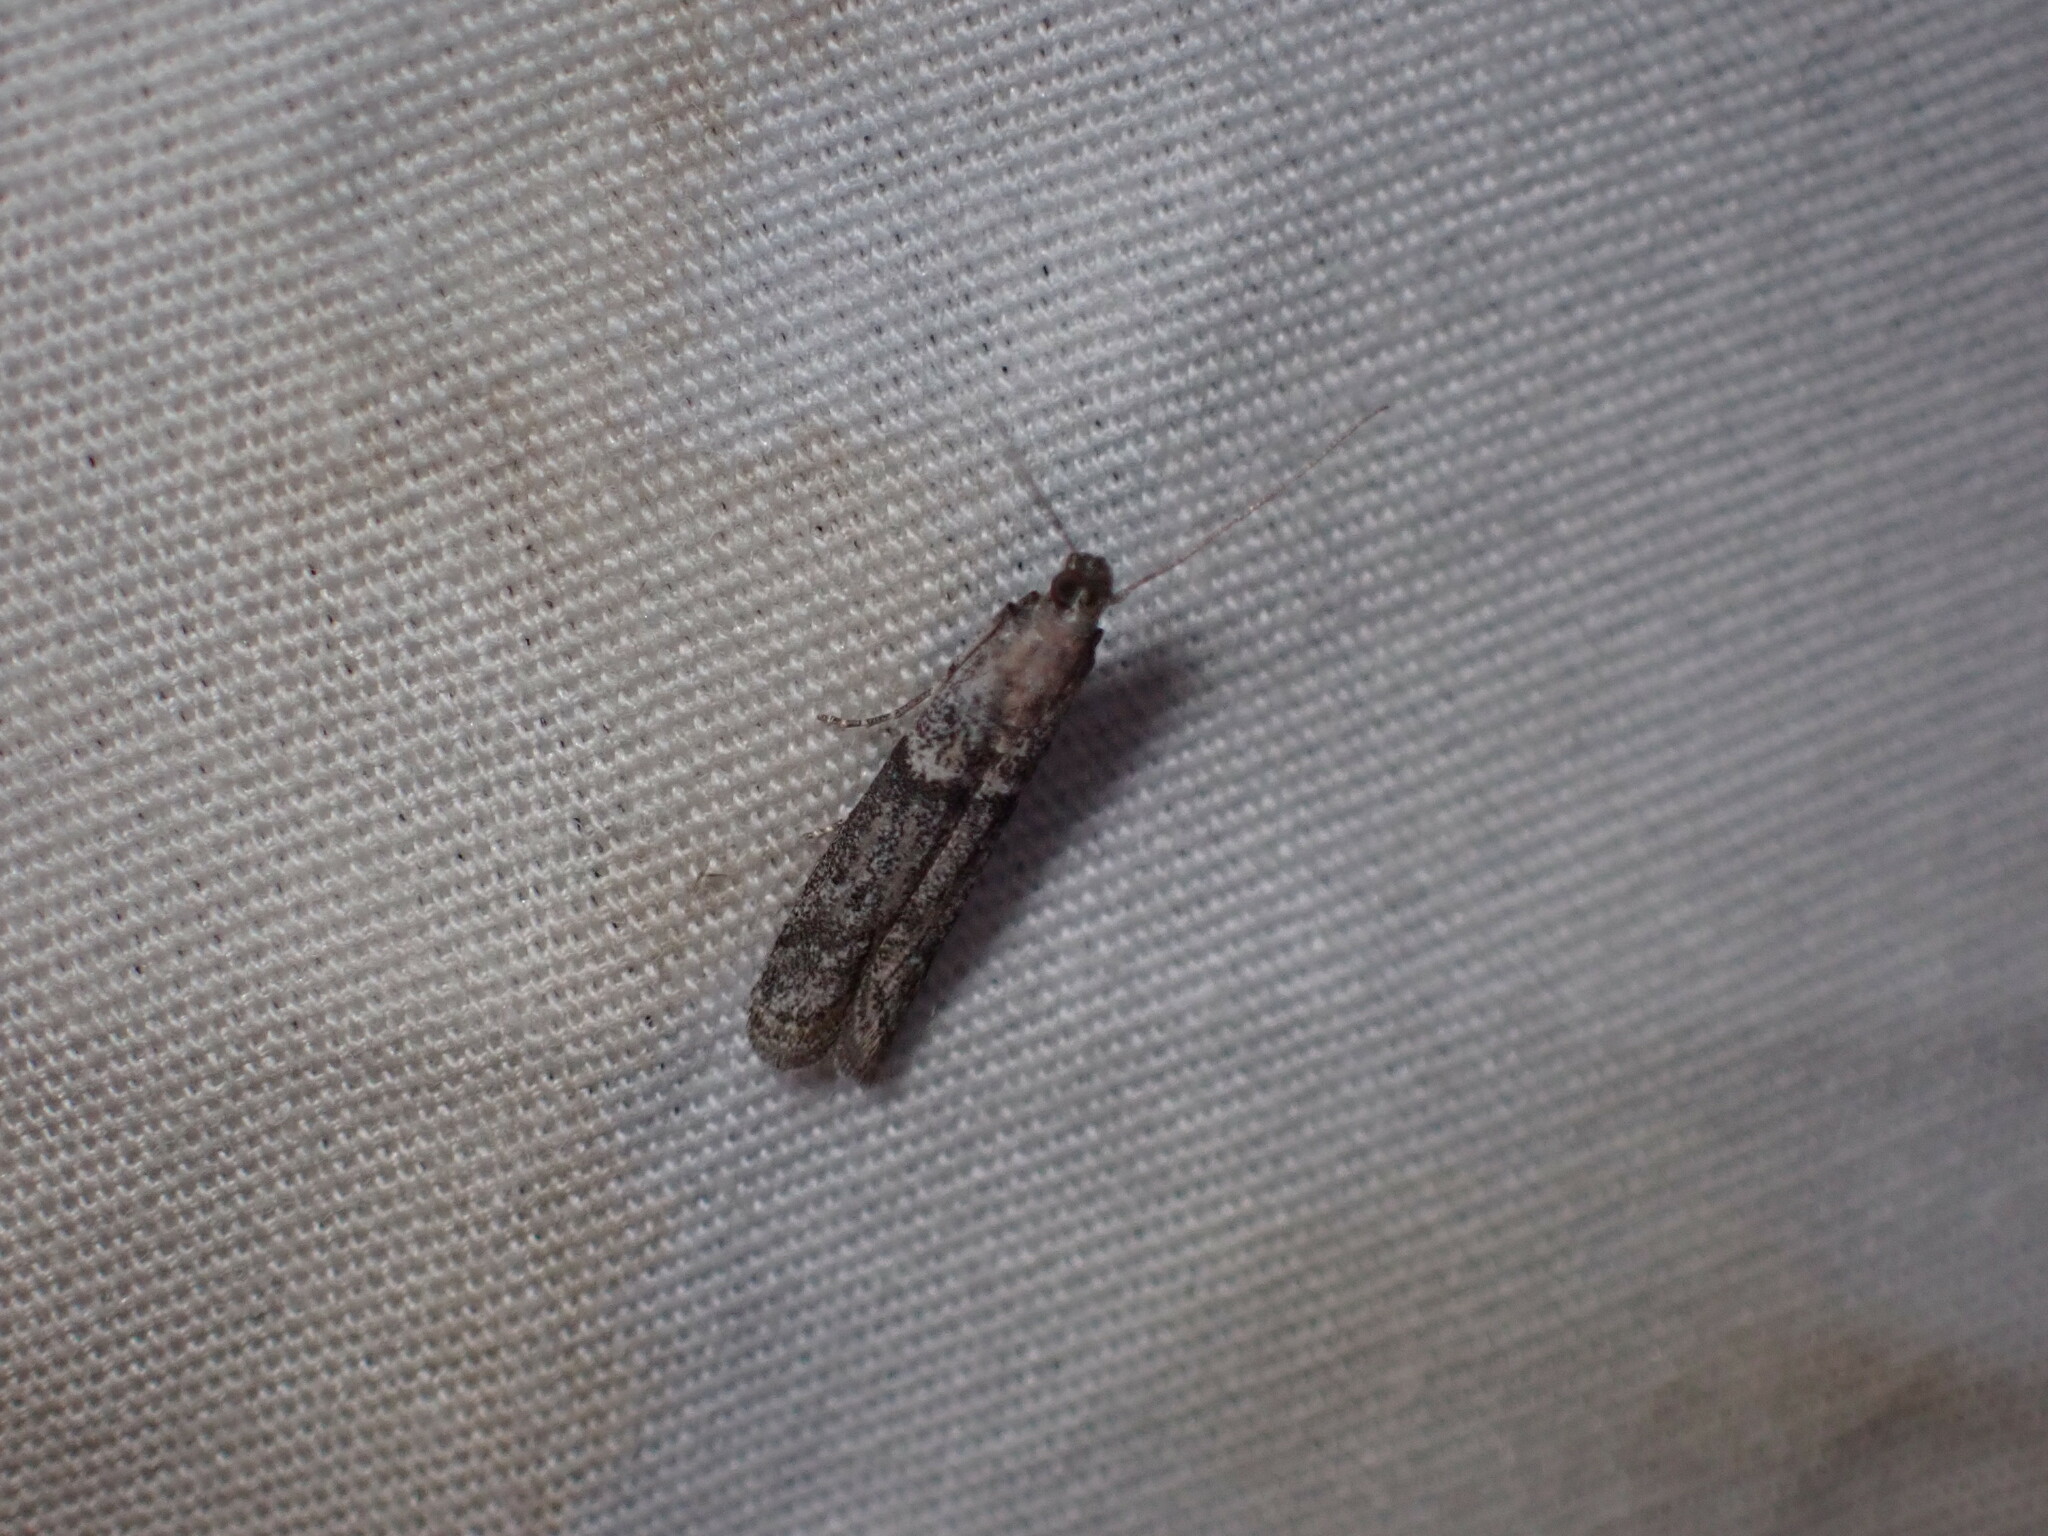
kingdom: Animalia
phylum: Arthropoda
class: Insecta
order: Lepidoptera
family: Pyralidae
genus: Ephestiodes
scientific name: Ephestiodes gilvescentella
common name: Moth
